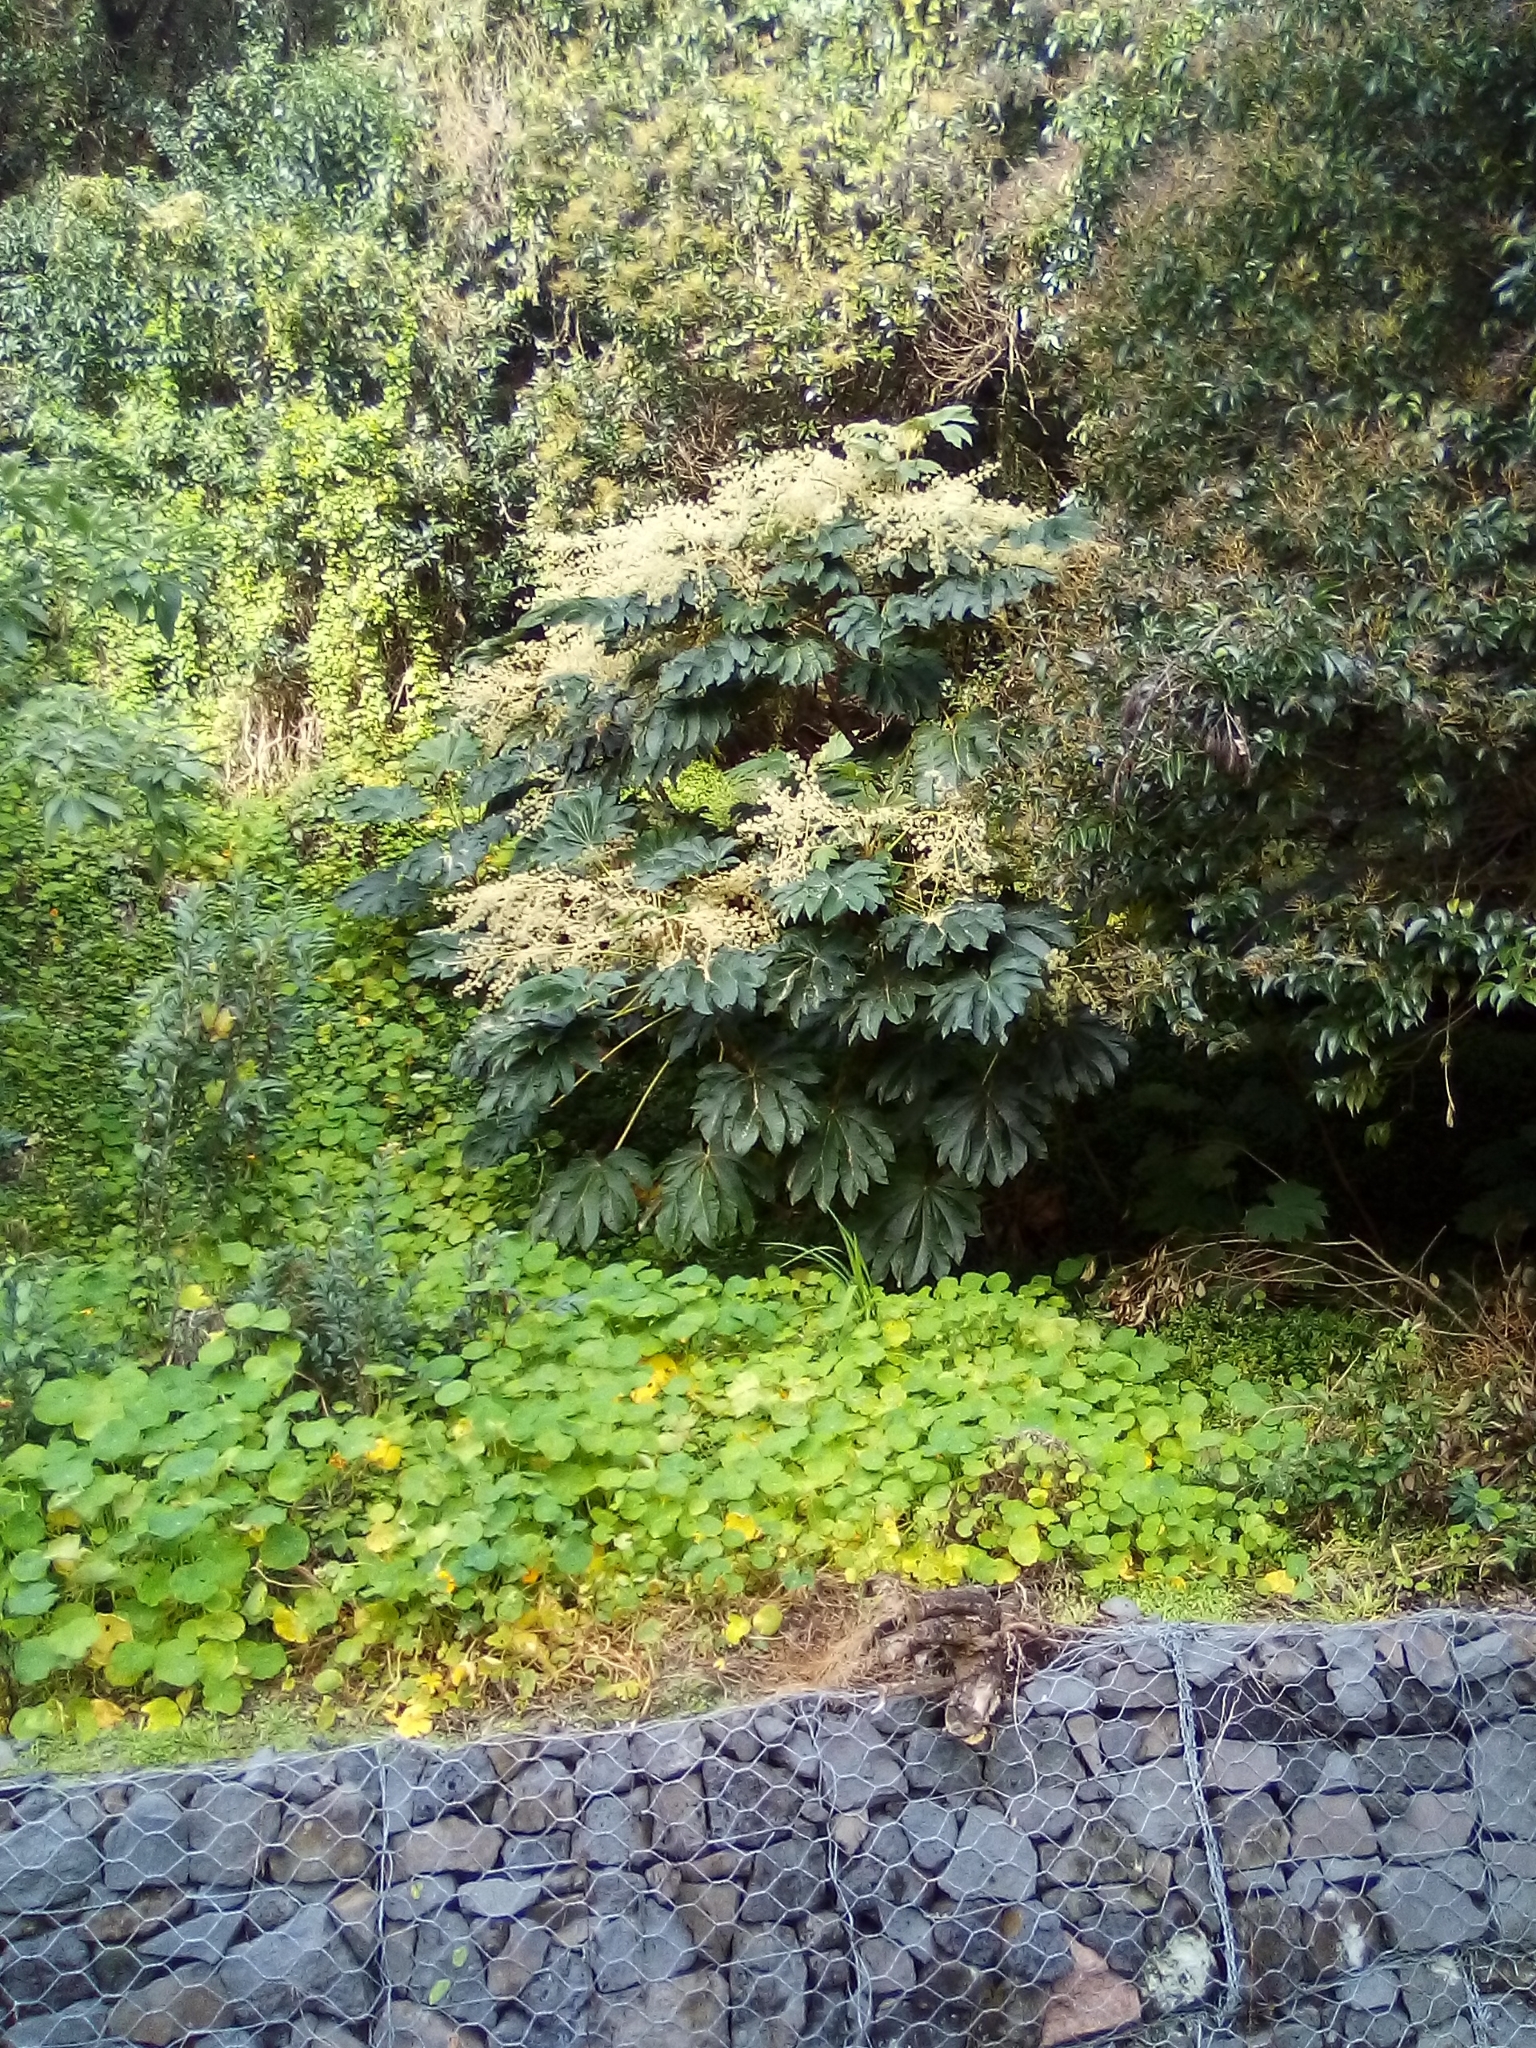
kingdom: Plantae
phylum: Tracheophyta
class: Magnoliopsida
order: Apiales
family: Araliaceae
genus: Tetrapanax
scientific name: Tetrapanax papyrifer
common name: Rice-paper plant
